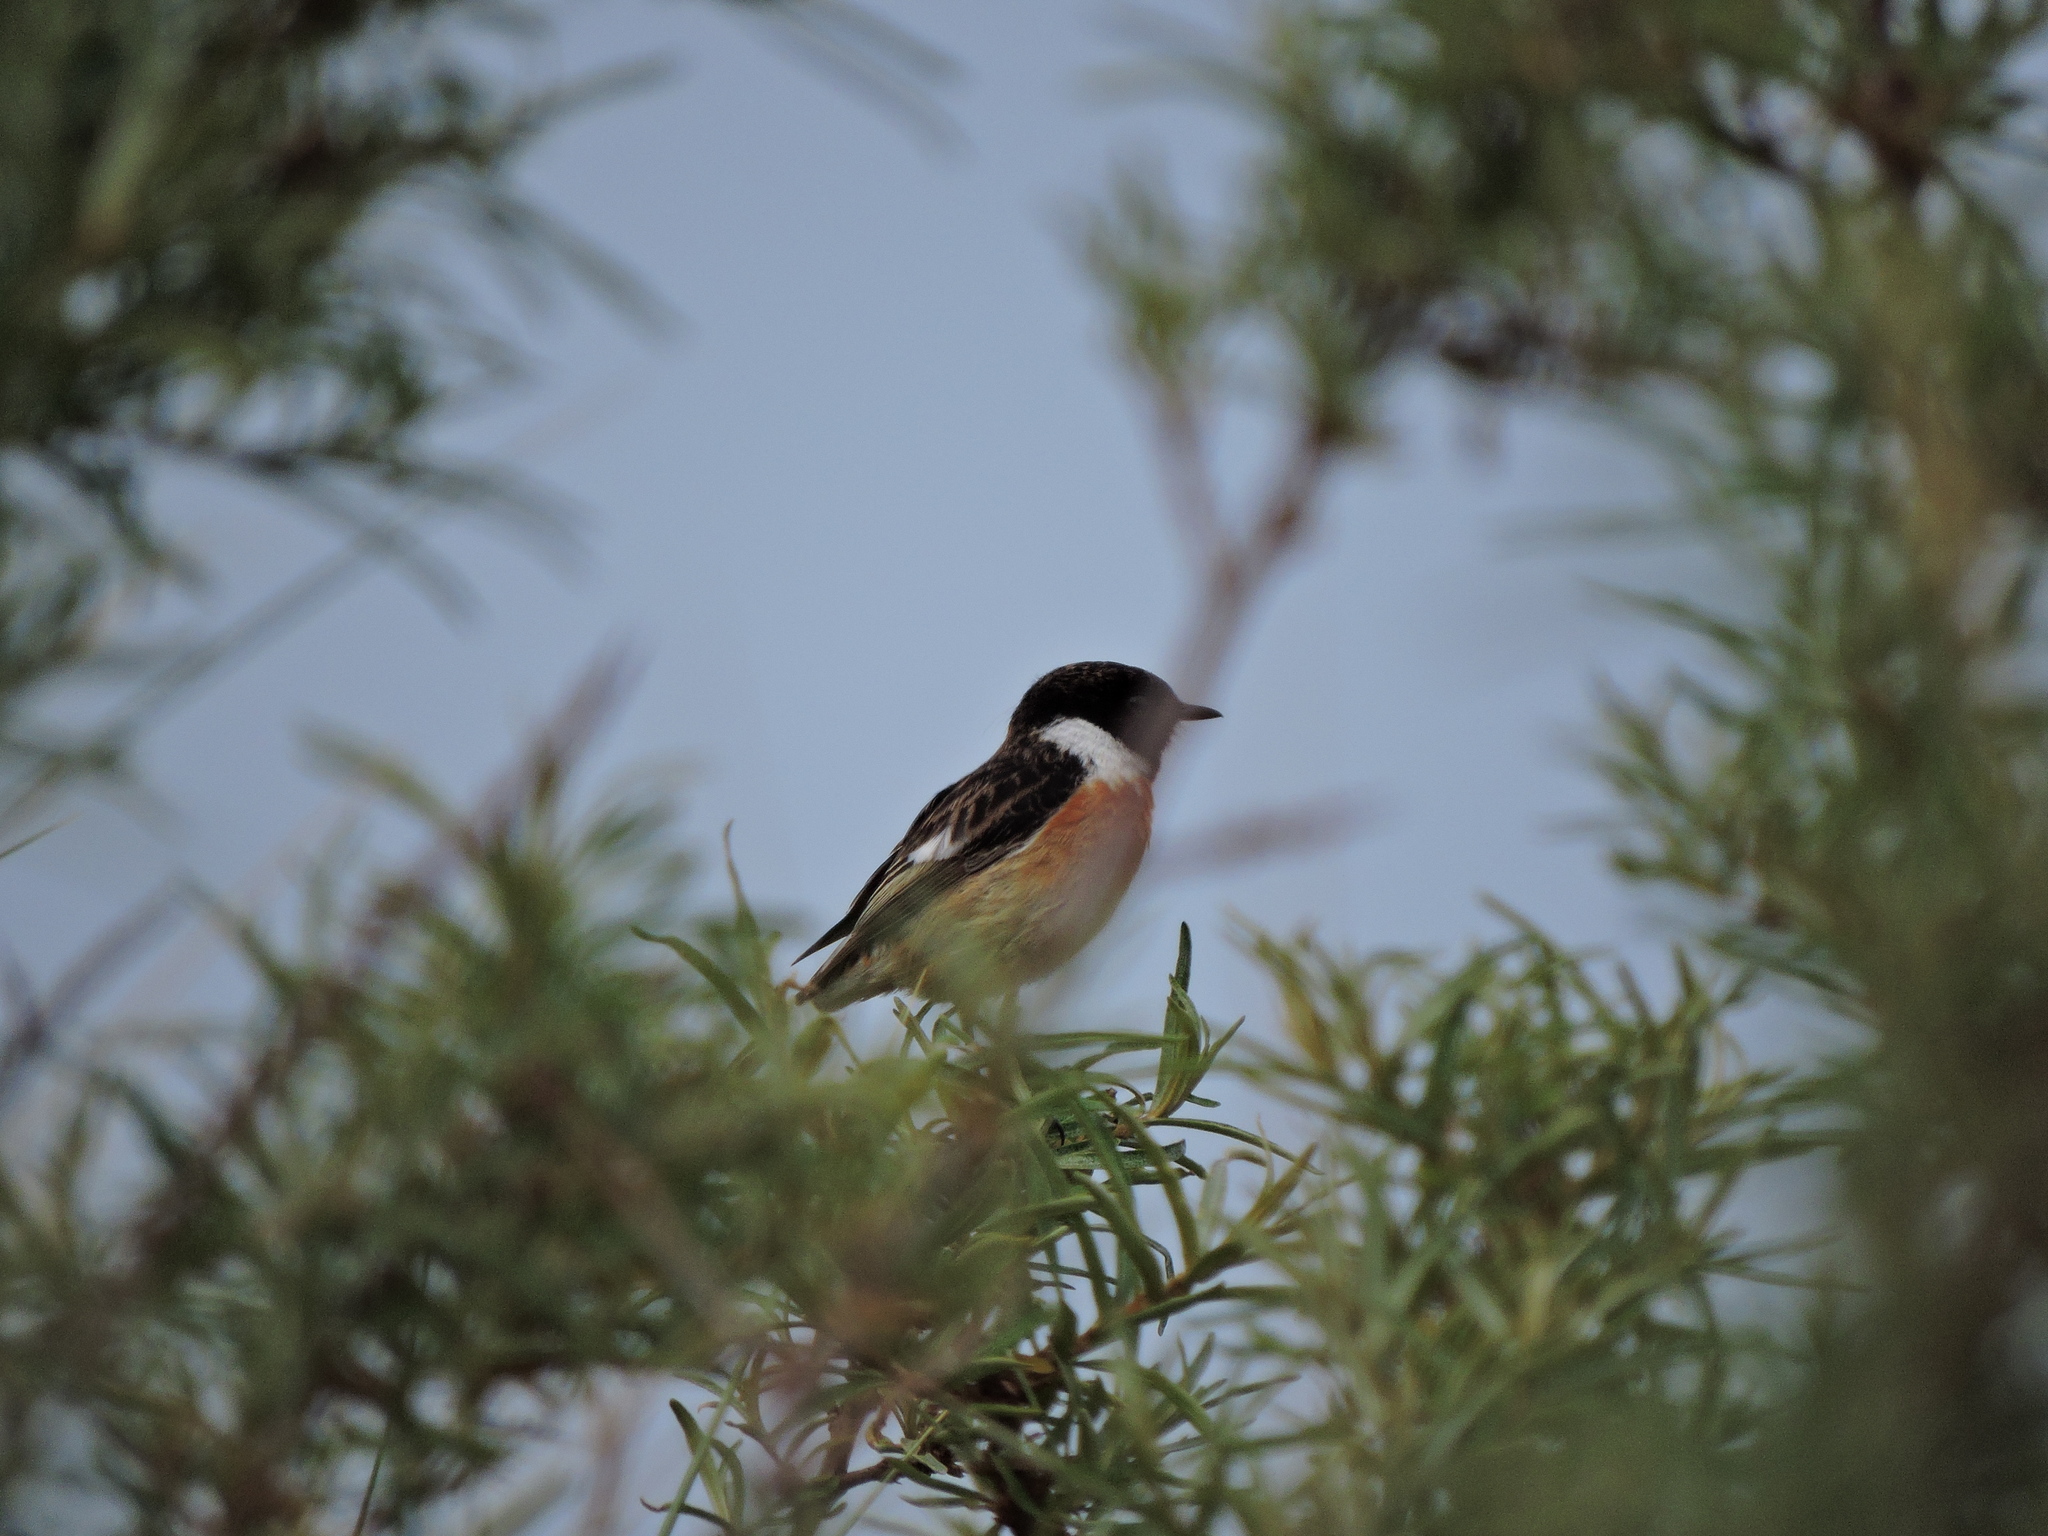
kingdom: Animalia
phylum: Chordata
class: Aves
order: Passeriformes
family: Muscicapidae
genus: Saxicola
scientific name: Saxicola rubicola
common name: European stonechat
